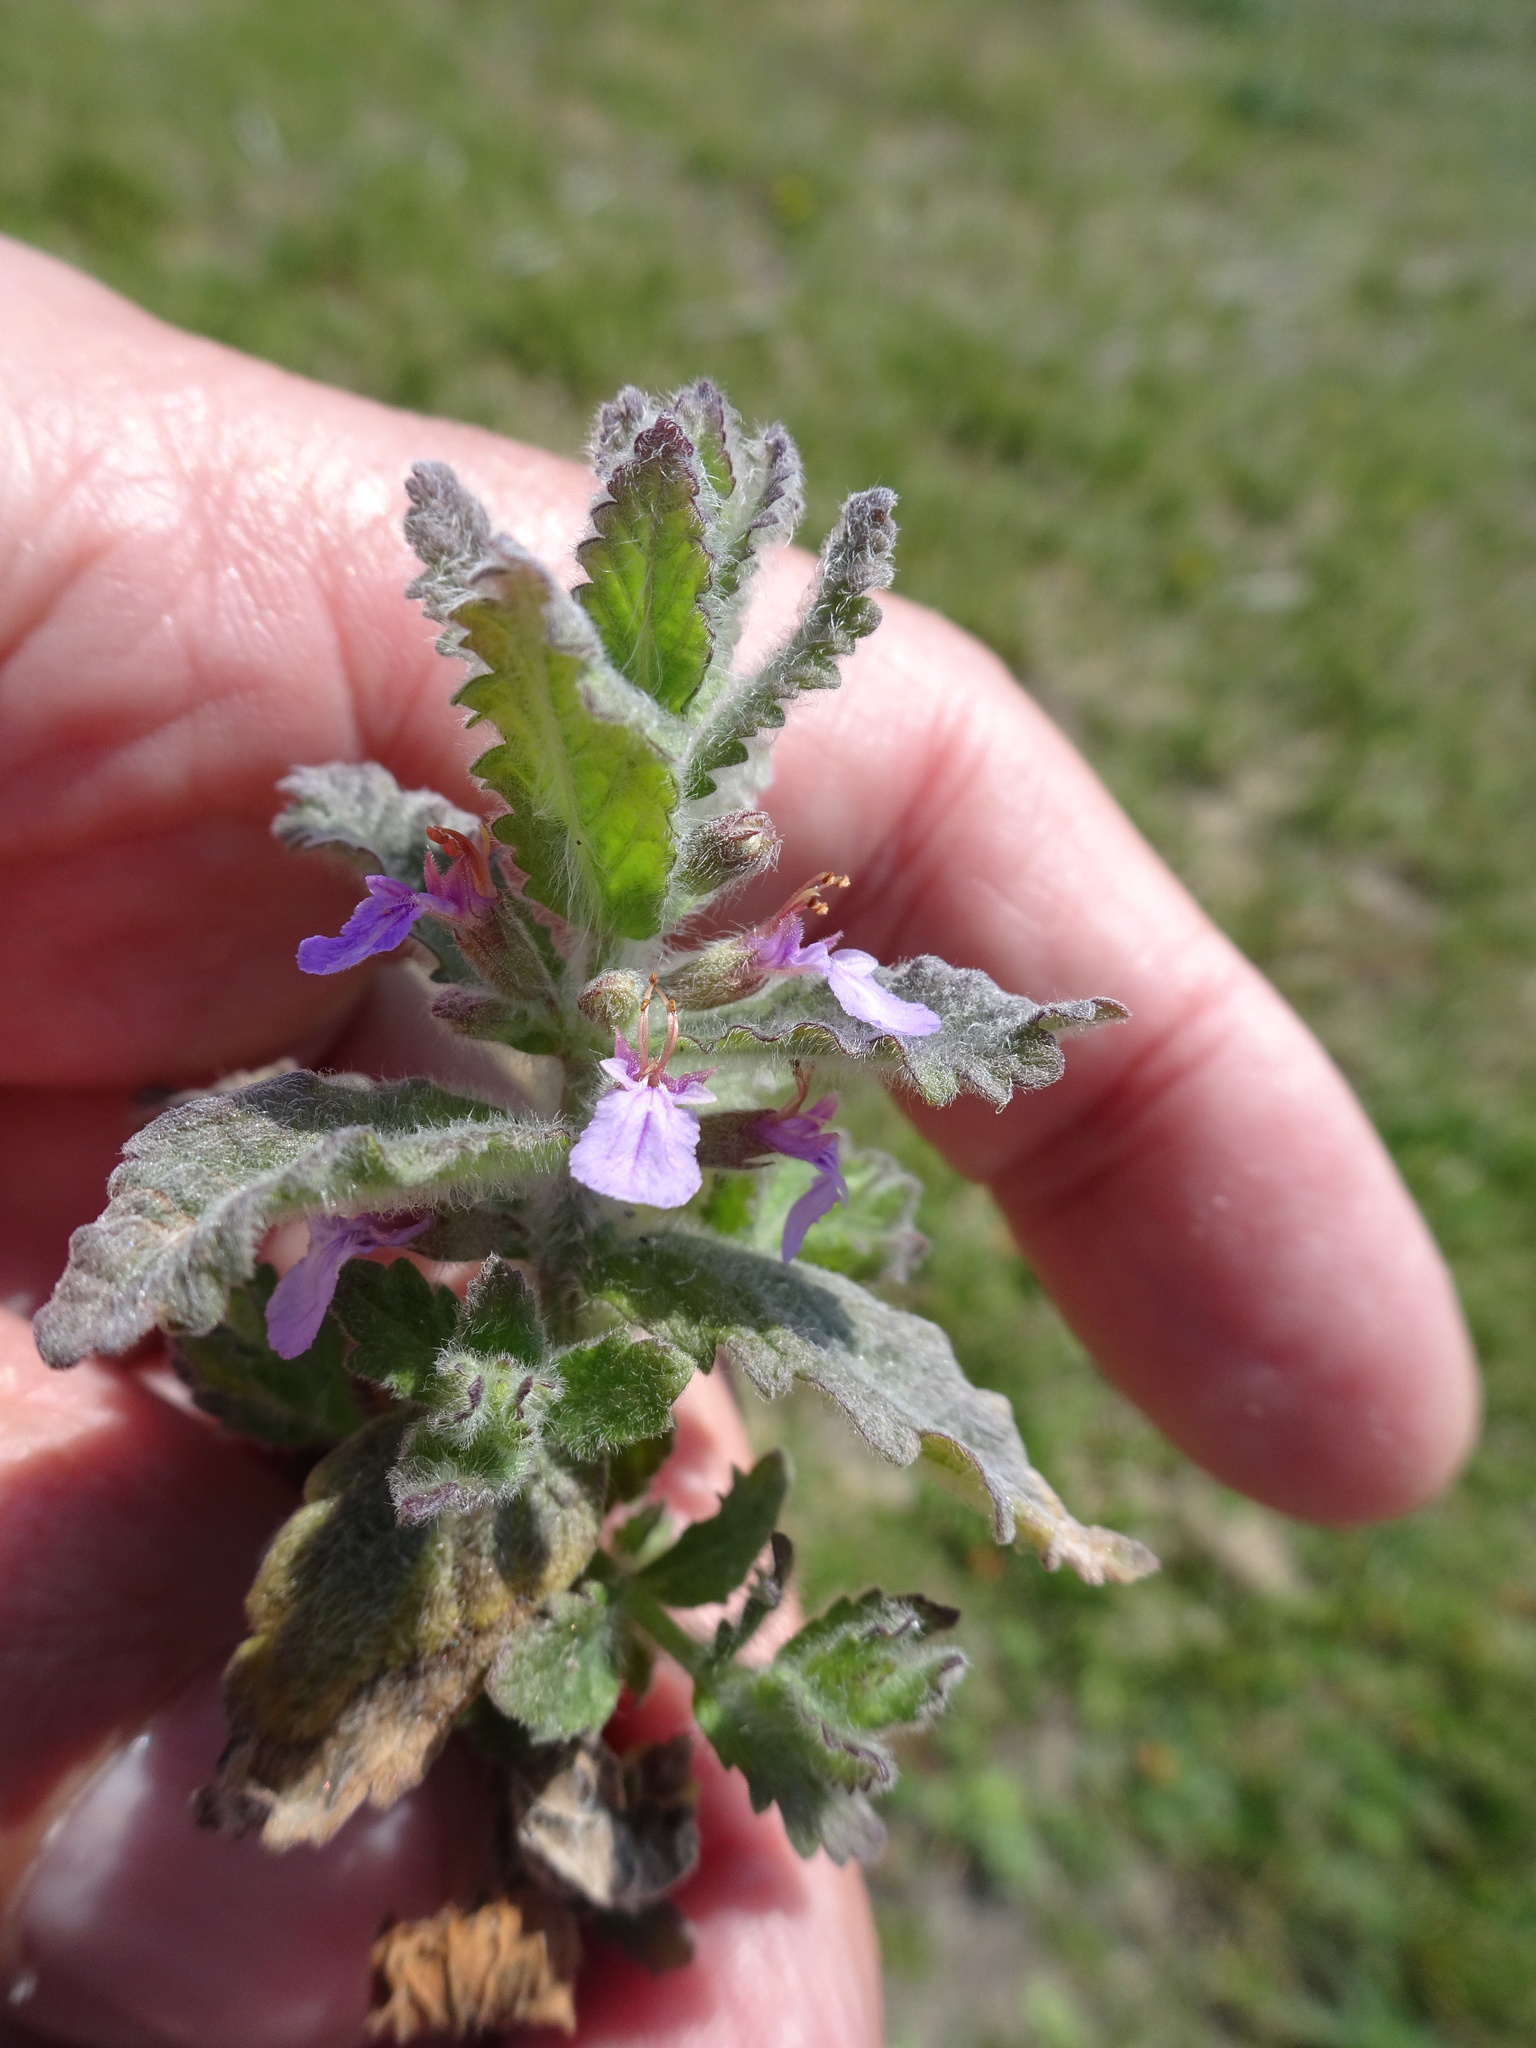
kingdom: Plantae
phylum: Tracheophyta
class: Magnoliopsida
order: Lamiales
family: Lamiaceae
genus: Teucrium
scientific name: Teucrium scordium
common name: Water germander
